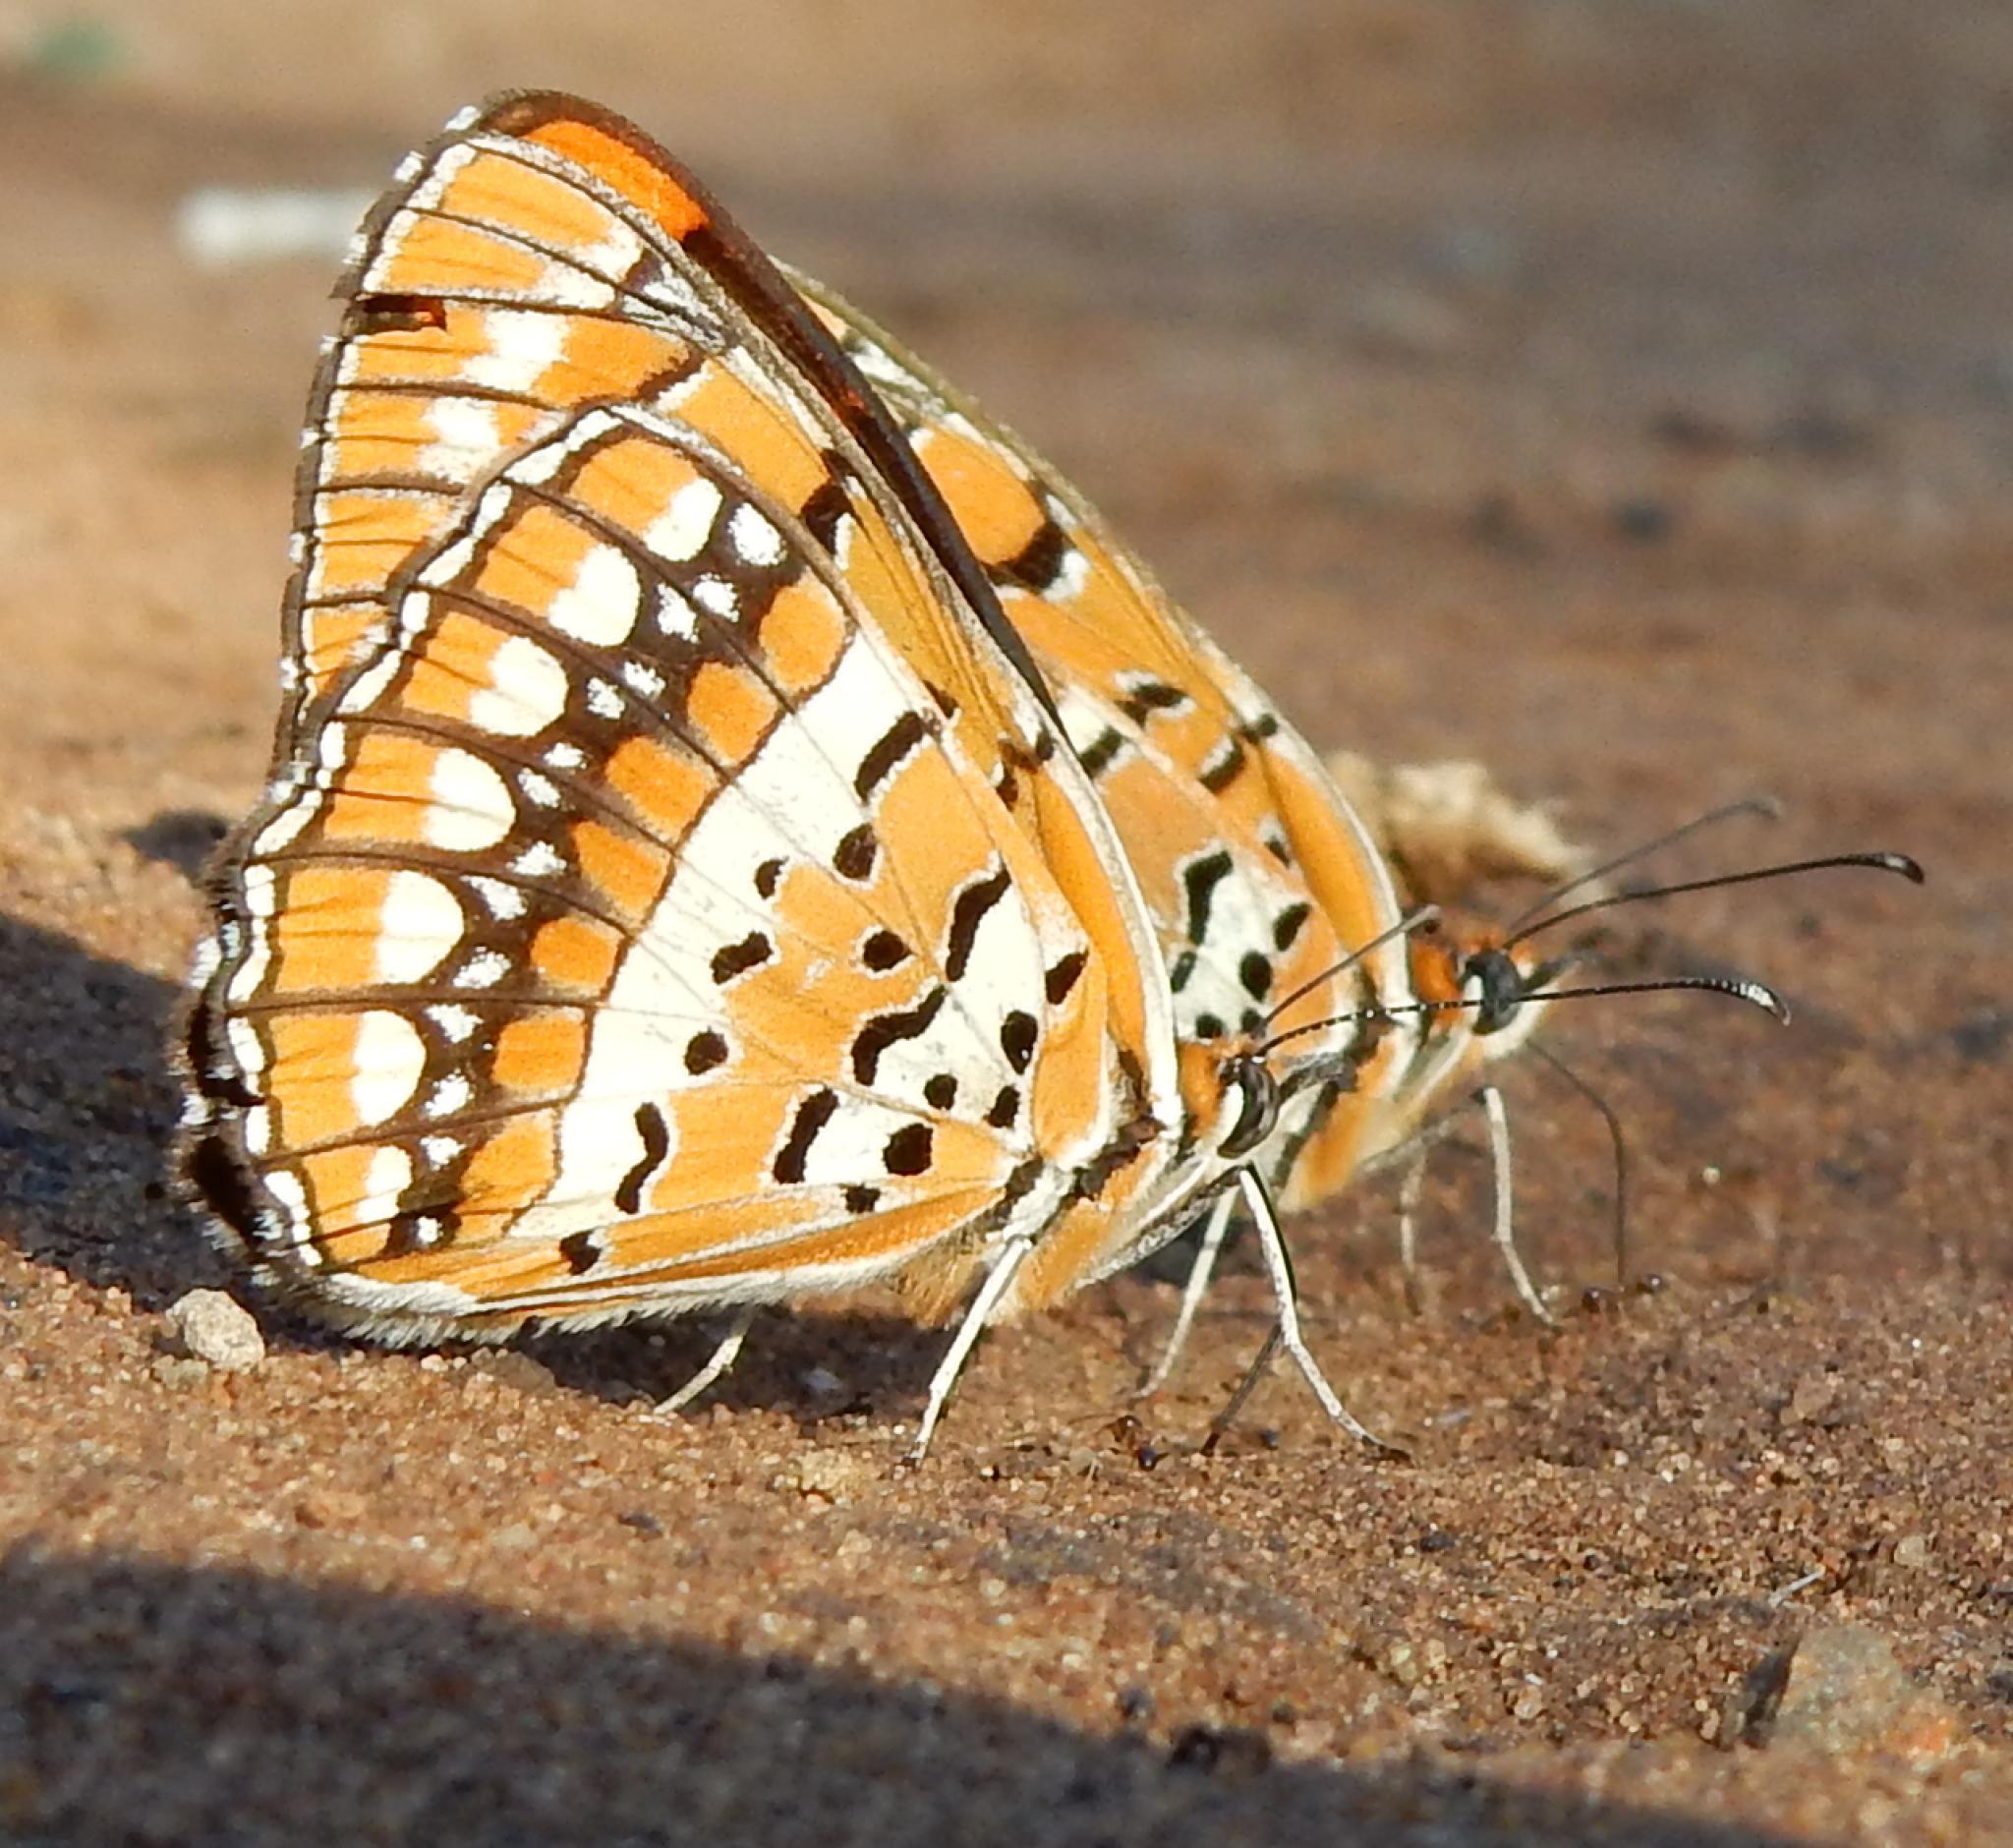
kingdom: Animalia
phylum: Arthropoda
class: Insecta
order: Lepidoptera
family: Nymphalidae
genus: Byblia
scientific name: Byblia ilithyia
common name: Spotted joker
